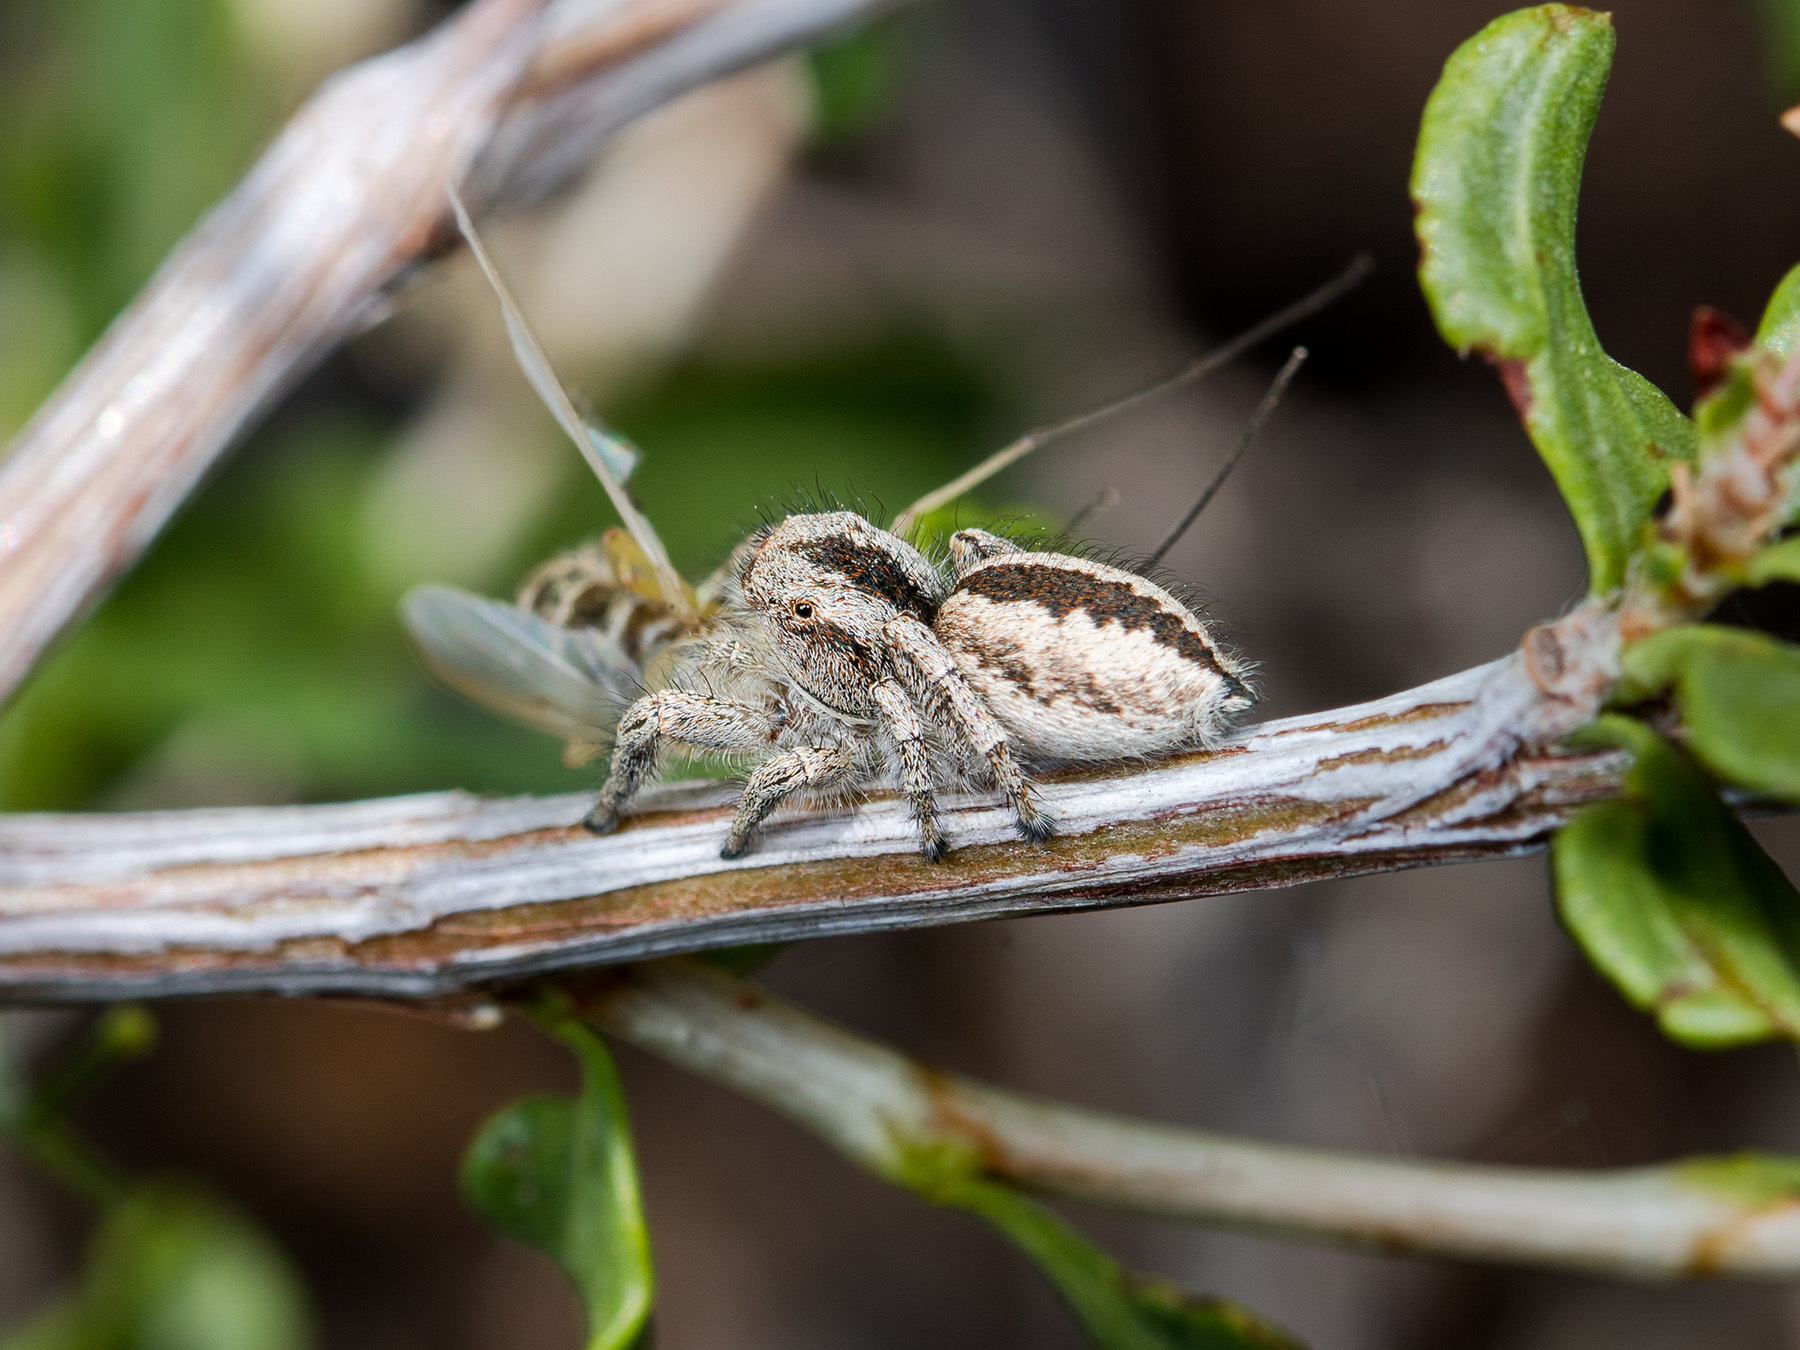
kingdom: Animalia
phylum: Arthropoda
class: Arachnida
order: Araneae
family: Salticidae
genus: Pseudomogrus
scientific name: Pseudomogrus vittatus
